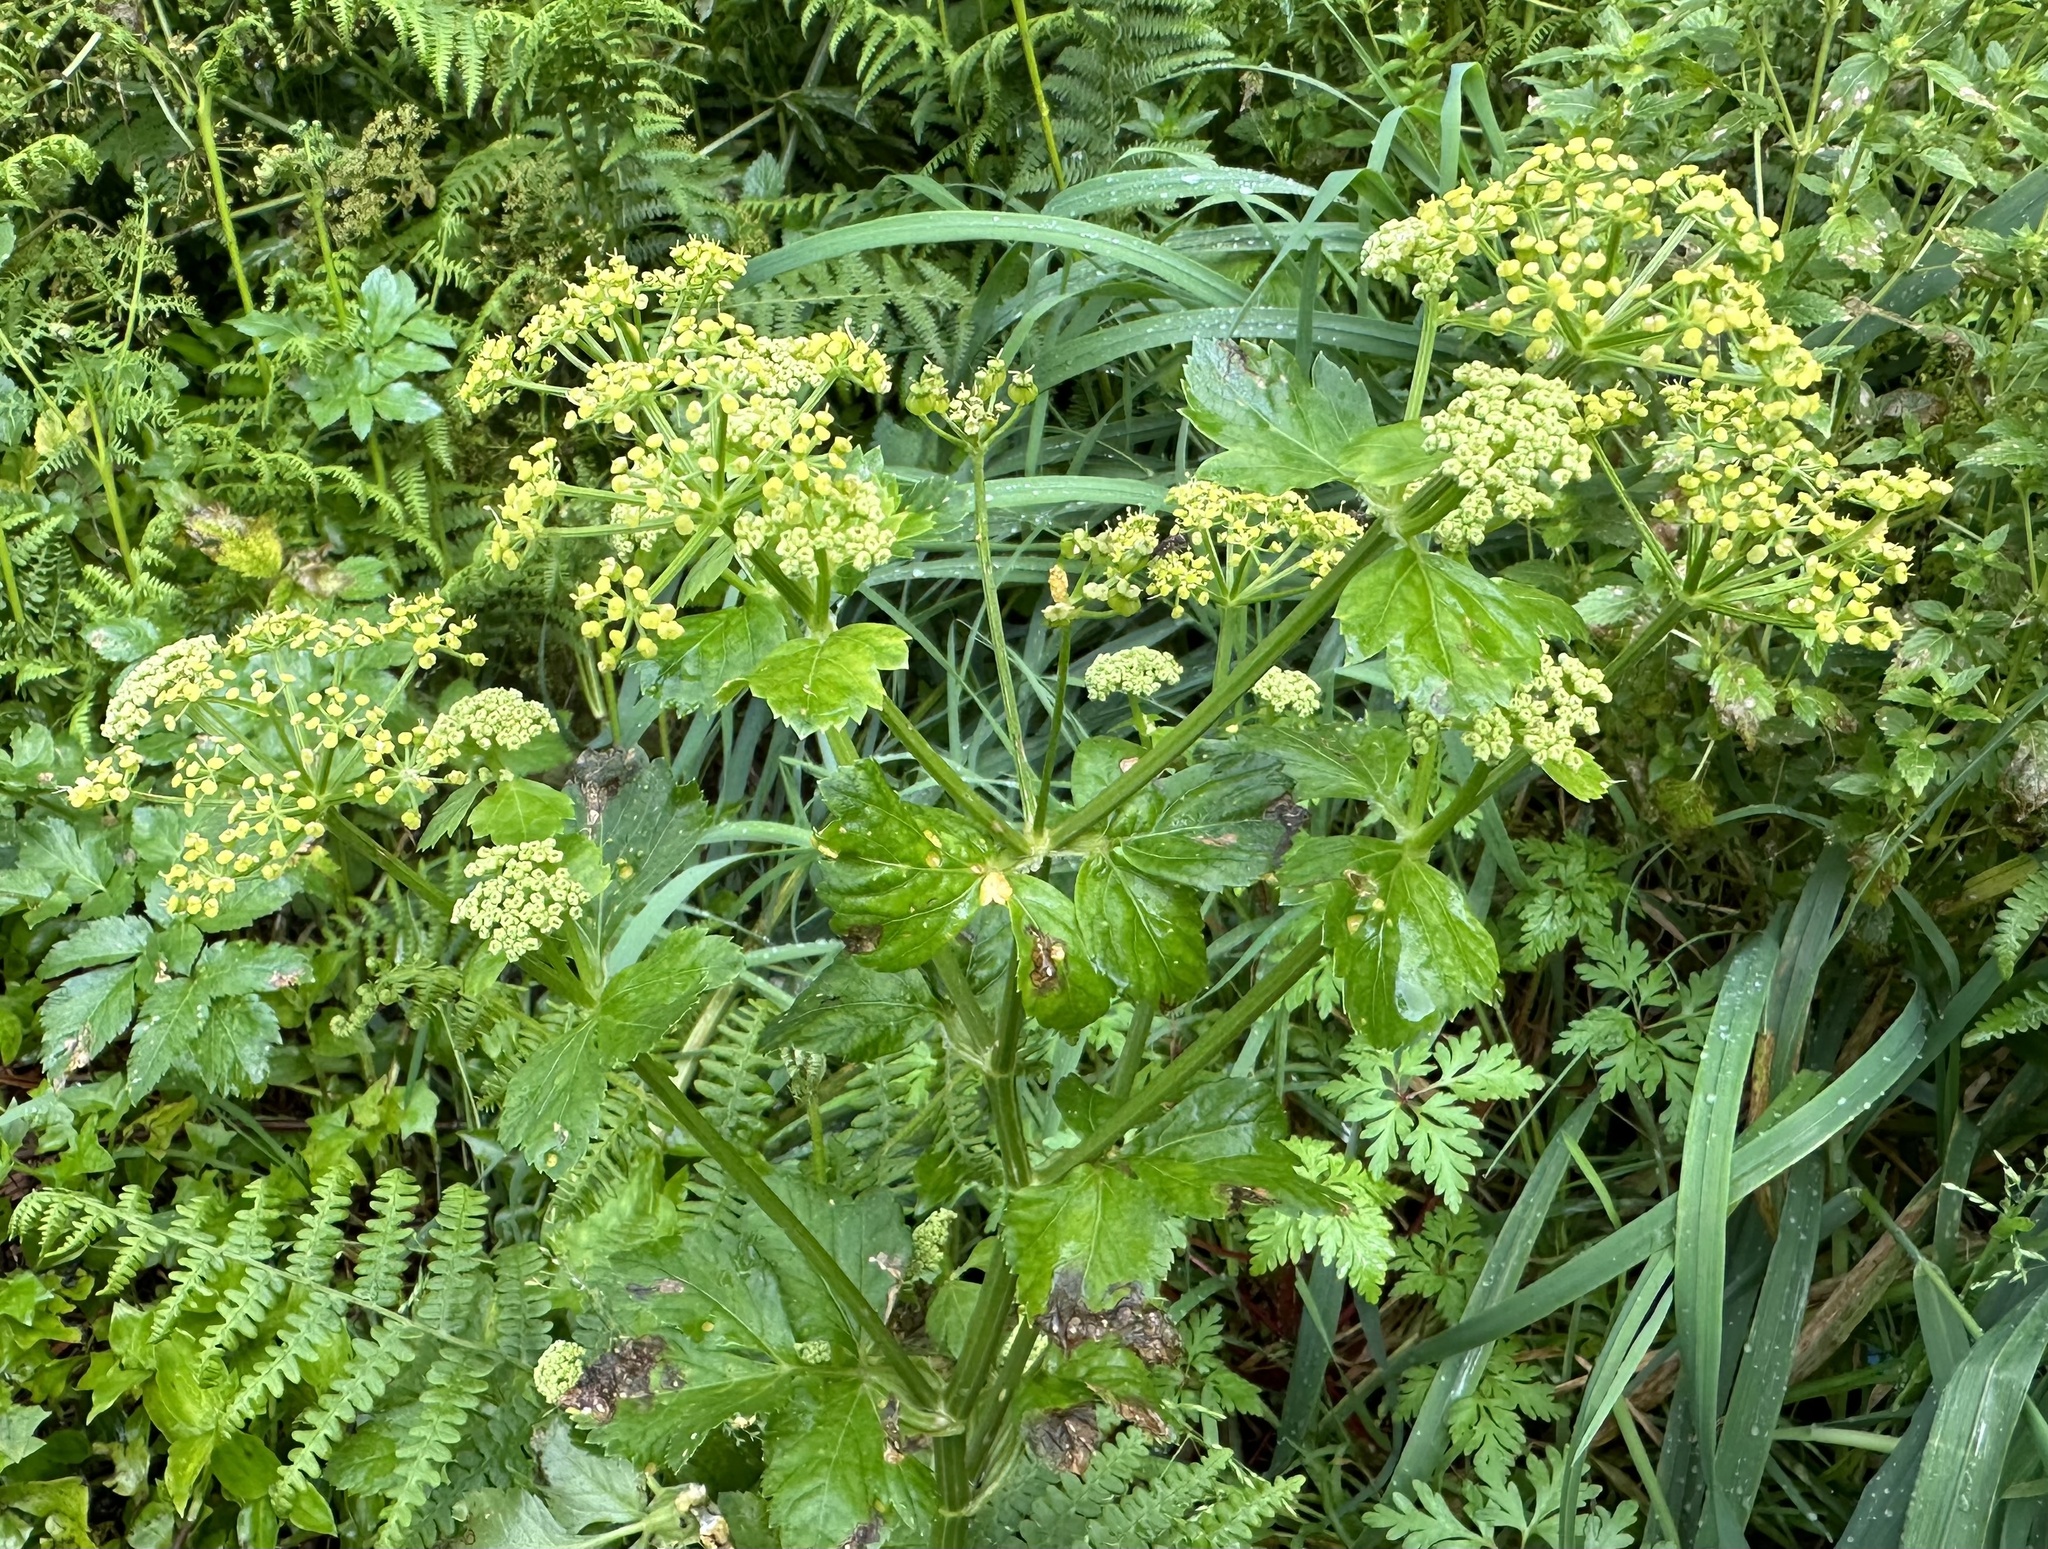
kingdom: Plantae
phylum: Tracheophyta
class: Magnoliopsida
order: Apiales
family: Apiaceae
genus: Smyrnium
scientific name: Smyrnium olusatrum
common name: Alexanders
